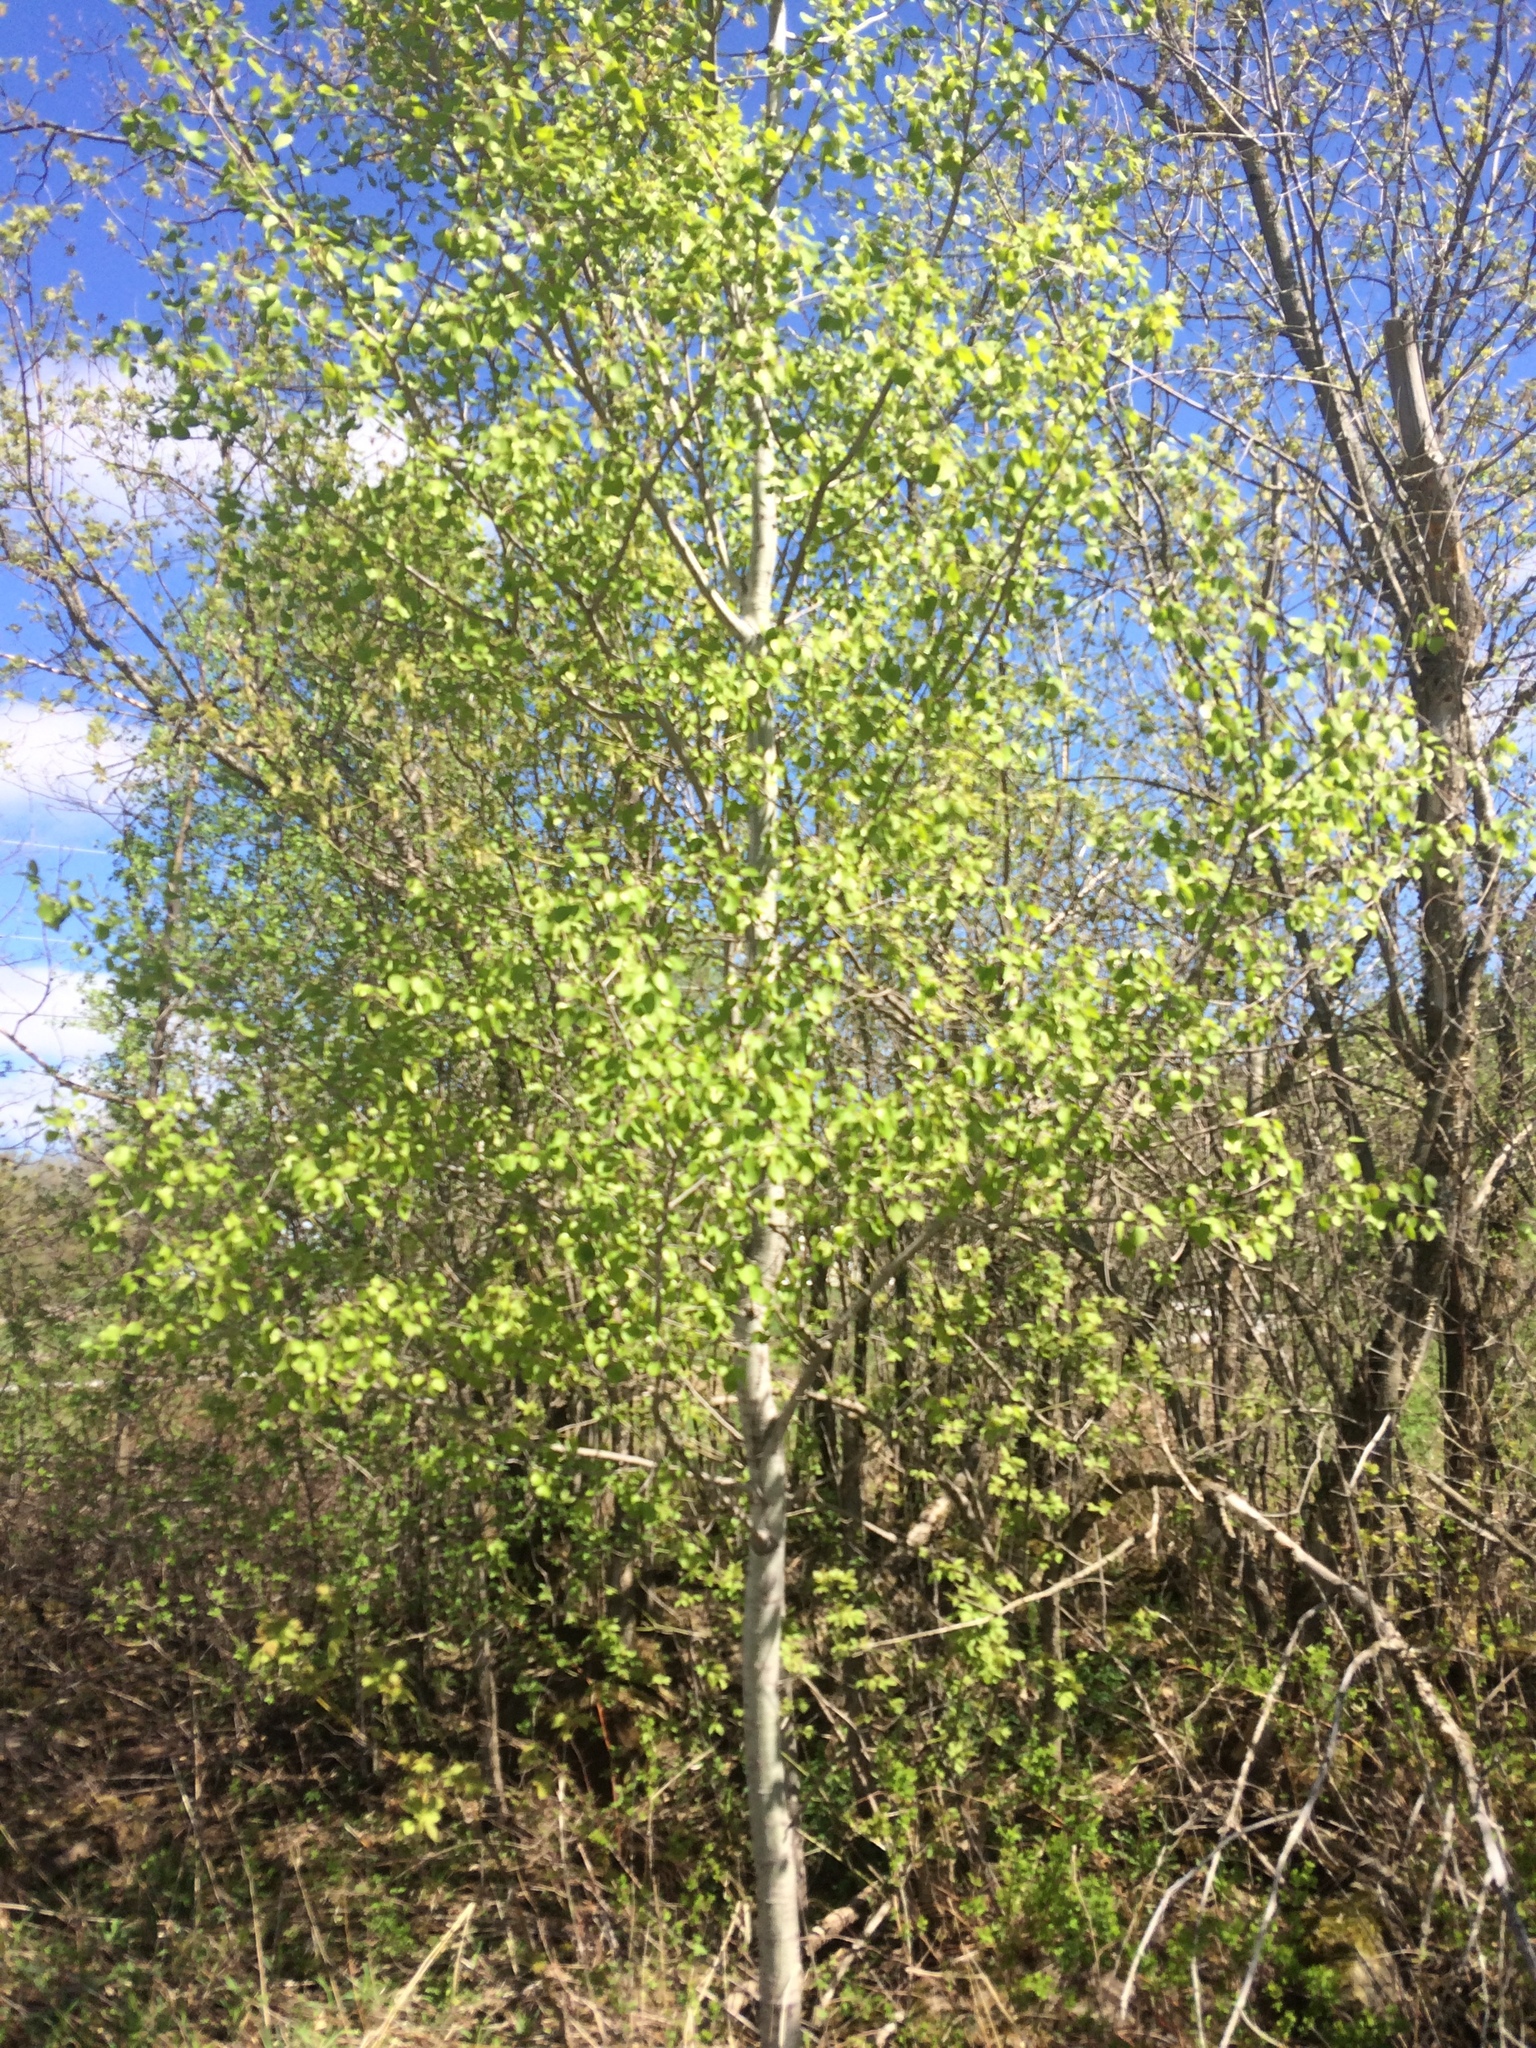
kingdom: Plantae
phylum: Tracheophyta
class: Magnoliopsida
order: Malpighiales
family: Salicaceae
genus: Populus
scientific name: Populus tremuloides
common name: Quaking aspen
